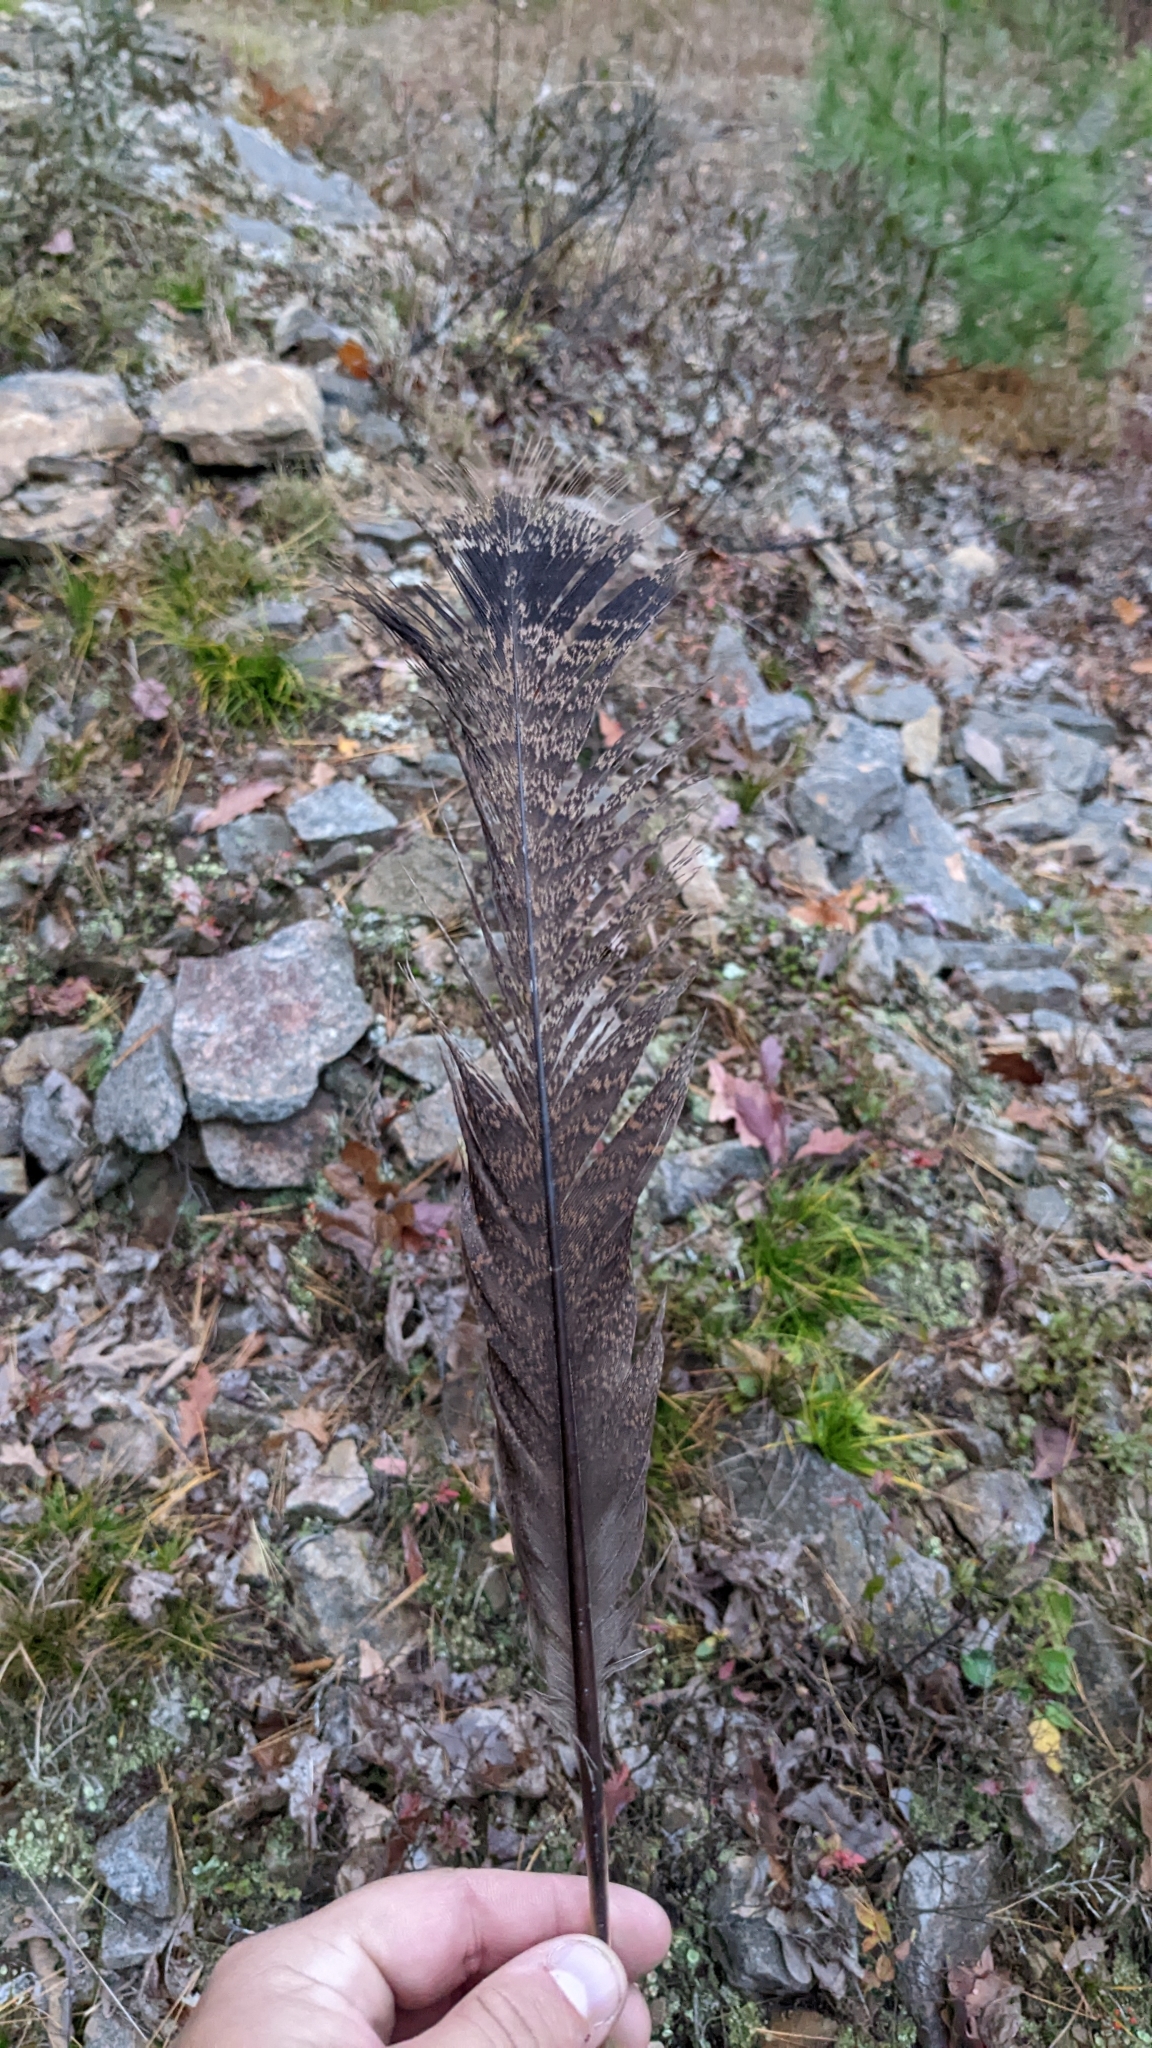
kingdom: Animalia
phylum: Chordata
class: Aves
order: Galliformes
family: Phasianidae
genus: Meleagris
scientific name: Meleagris gallopavo
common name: Wild turkey
